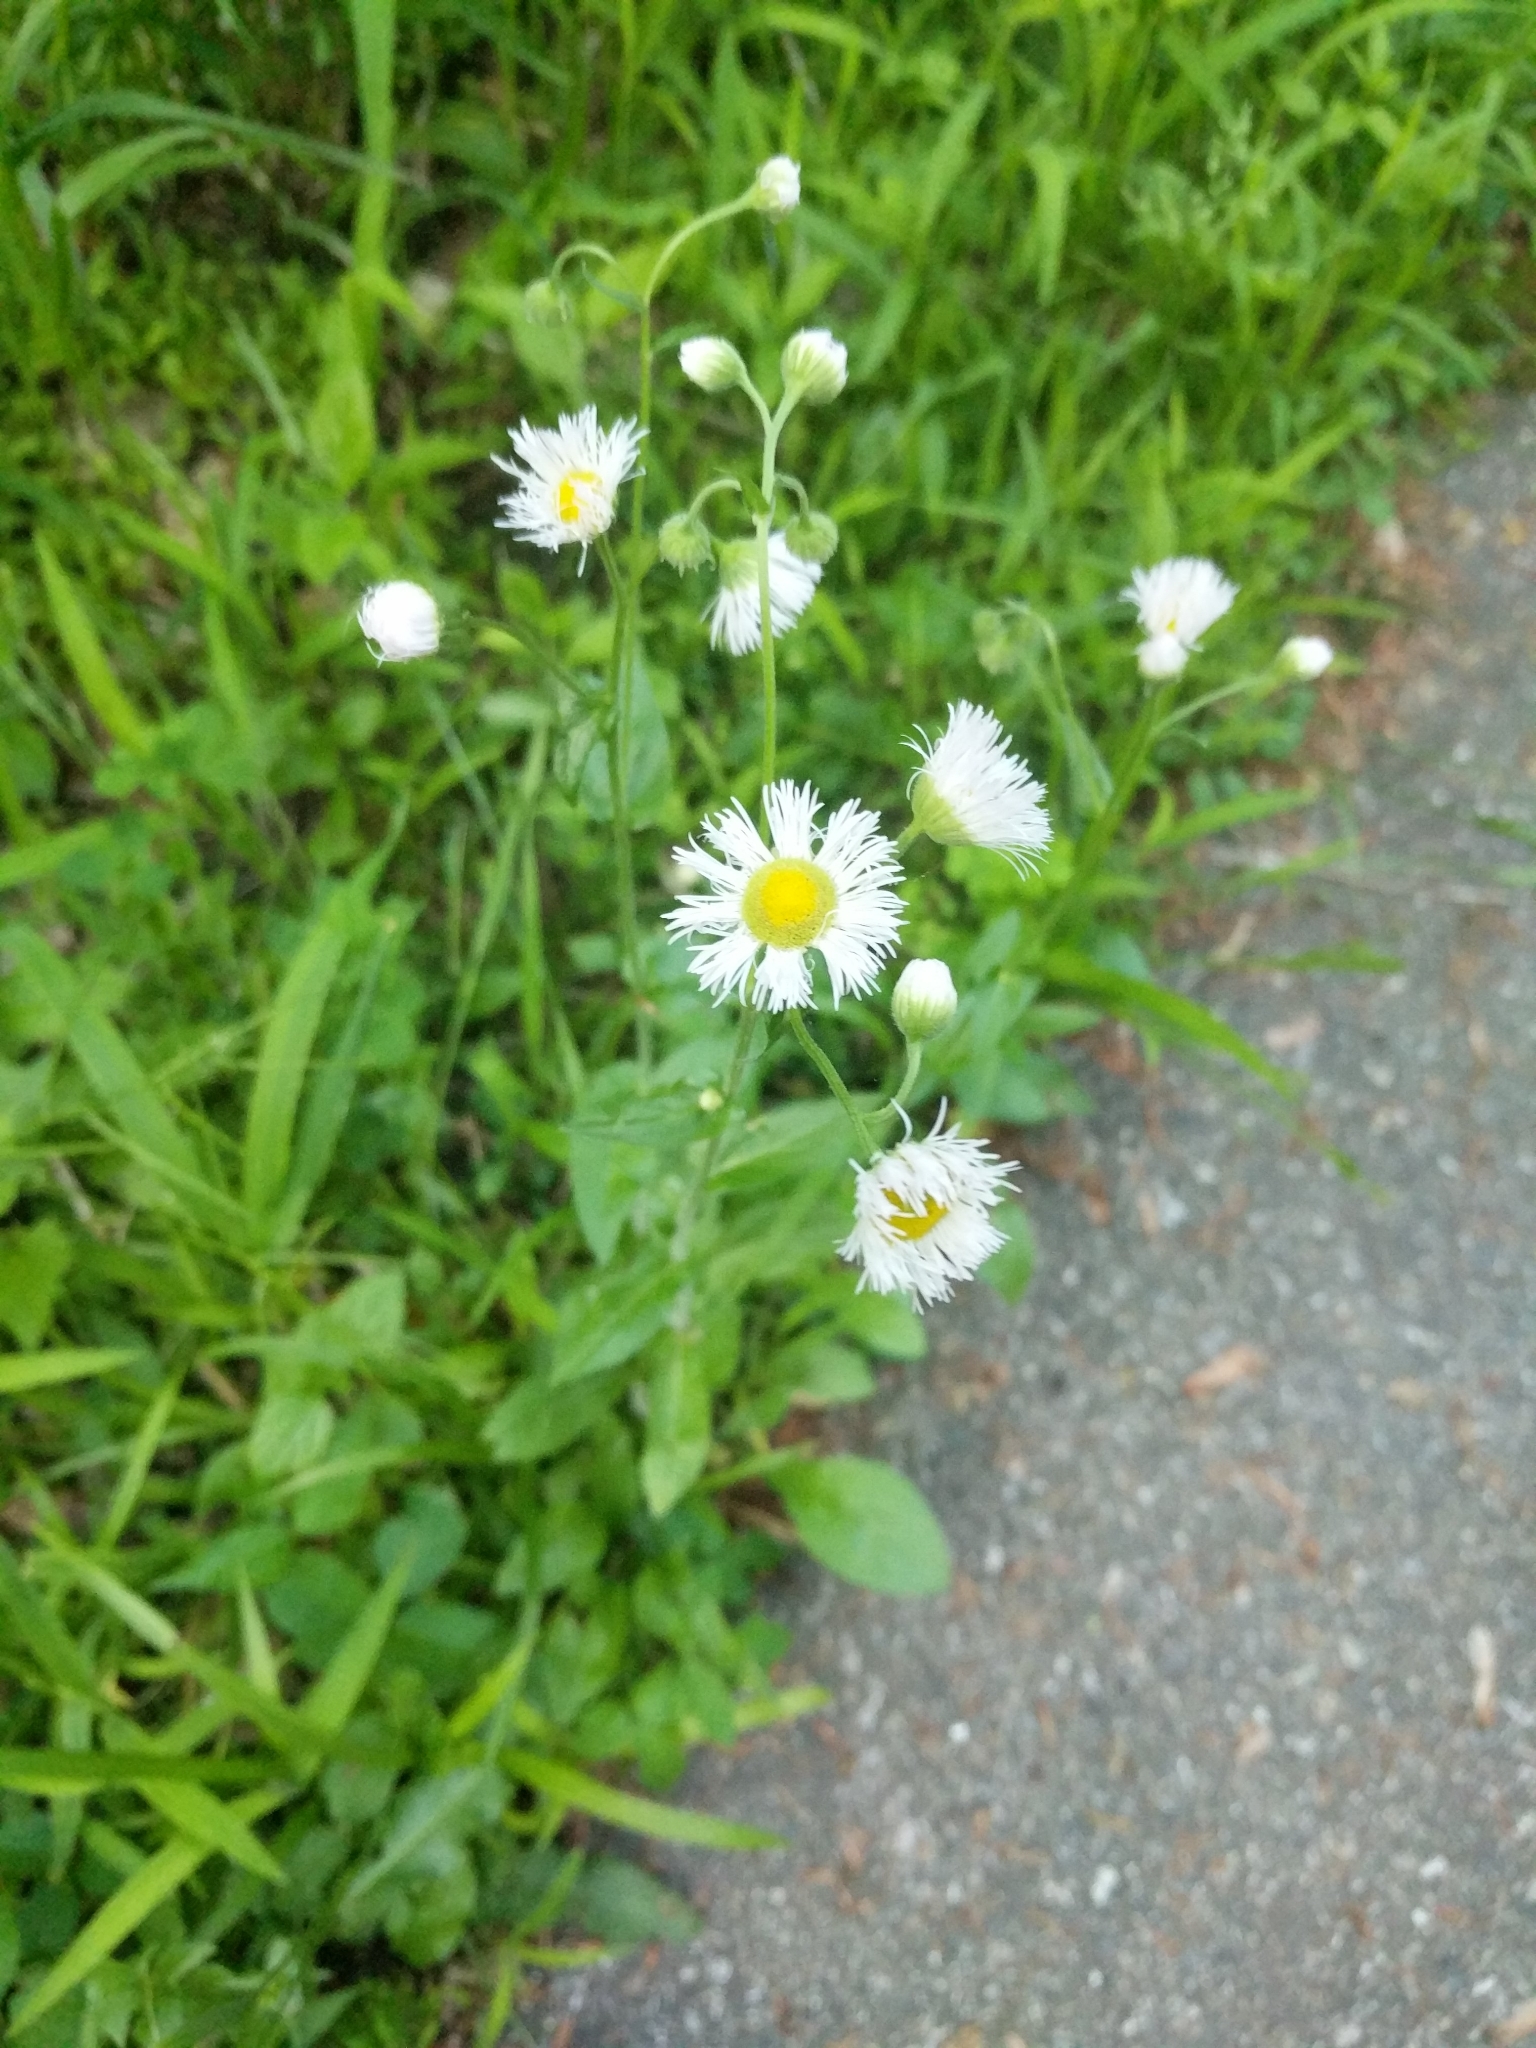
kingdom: Plantae
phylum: Tracheophyta
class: Magnoliopsida
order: Asterales
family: Asteraceae
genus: Erigeron
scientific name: Erigeron philadelphicus
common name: Robin's-plantain
